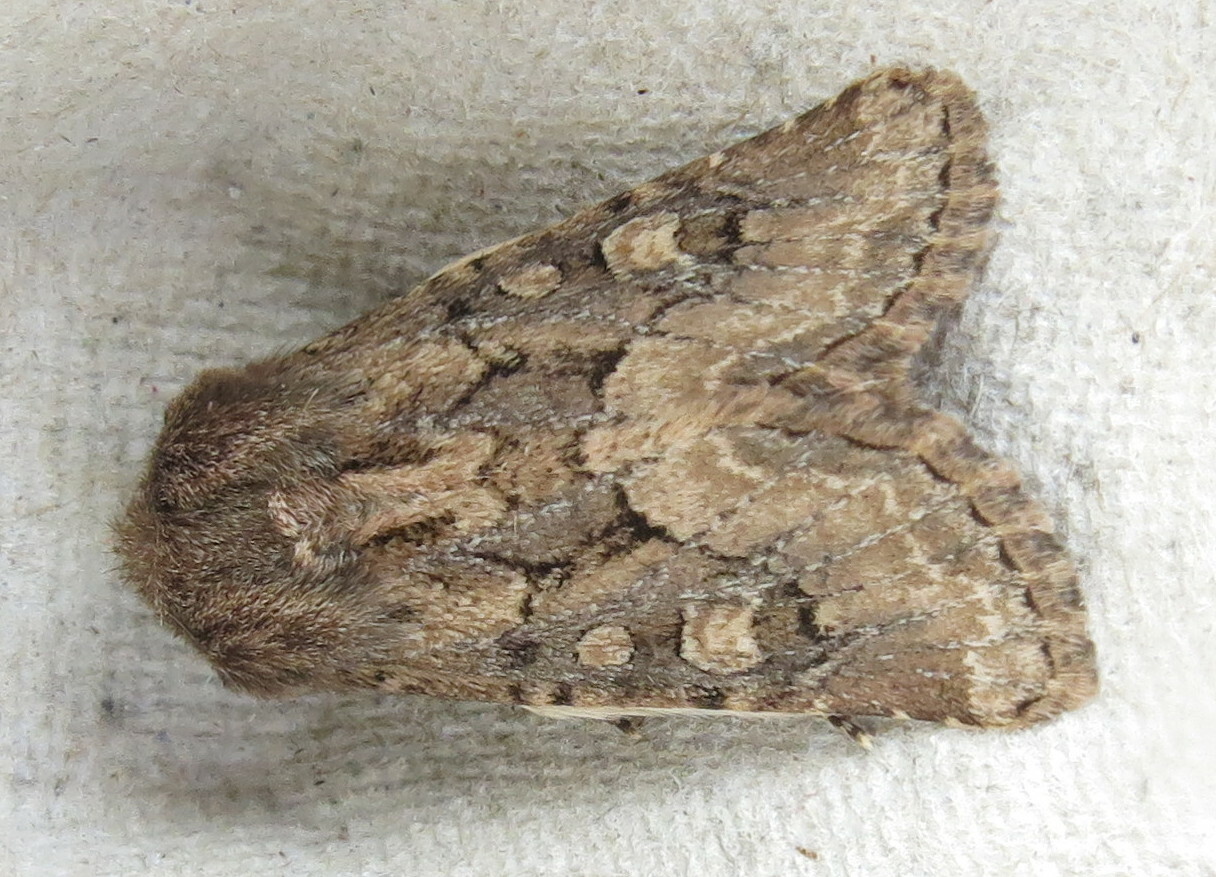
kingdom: Animalia
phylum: Arthropoda
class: Insecta
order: Lepidoptera
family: Noctuidae
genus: Luperina
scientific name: Luperina testacea
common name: Flounced rustic
